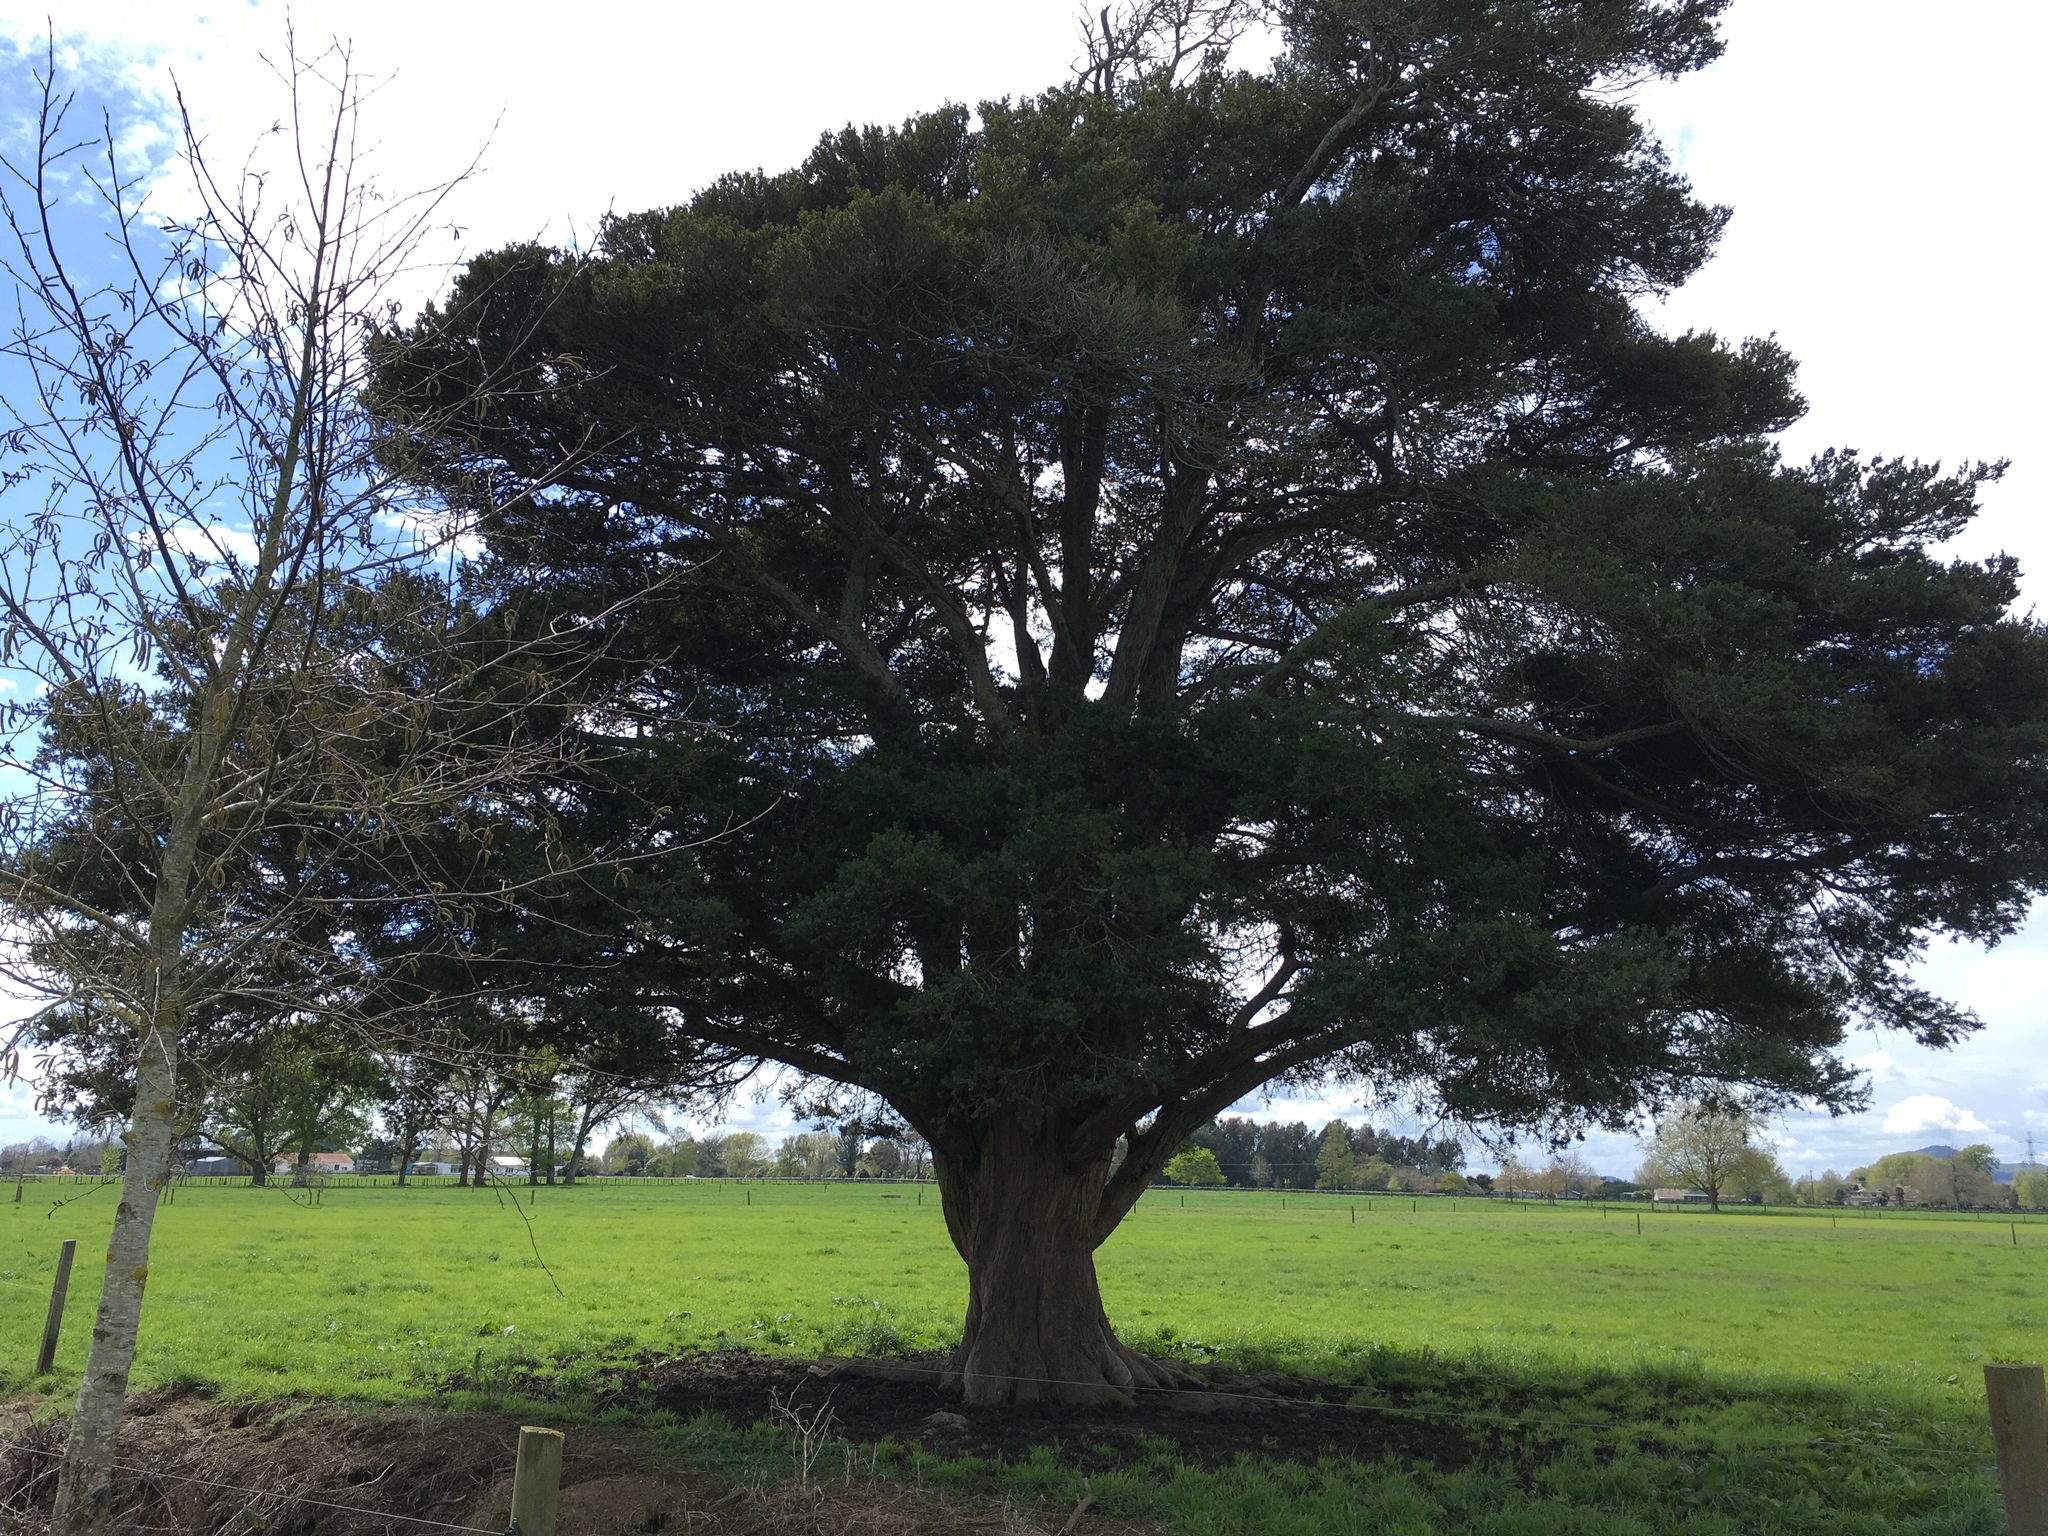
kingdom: Plantae
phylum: Tracheophyta
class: Pinopsida
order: Pinales
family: Podocarpaceae
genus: Podocarpus
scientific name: Podocarpus totara
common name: Totara
